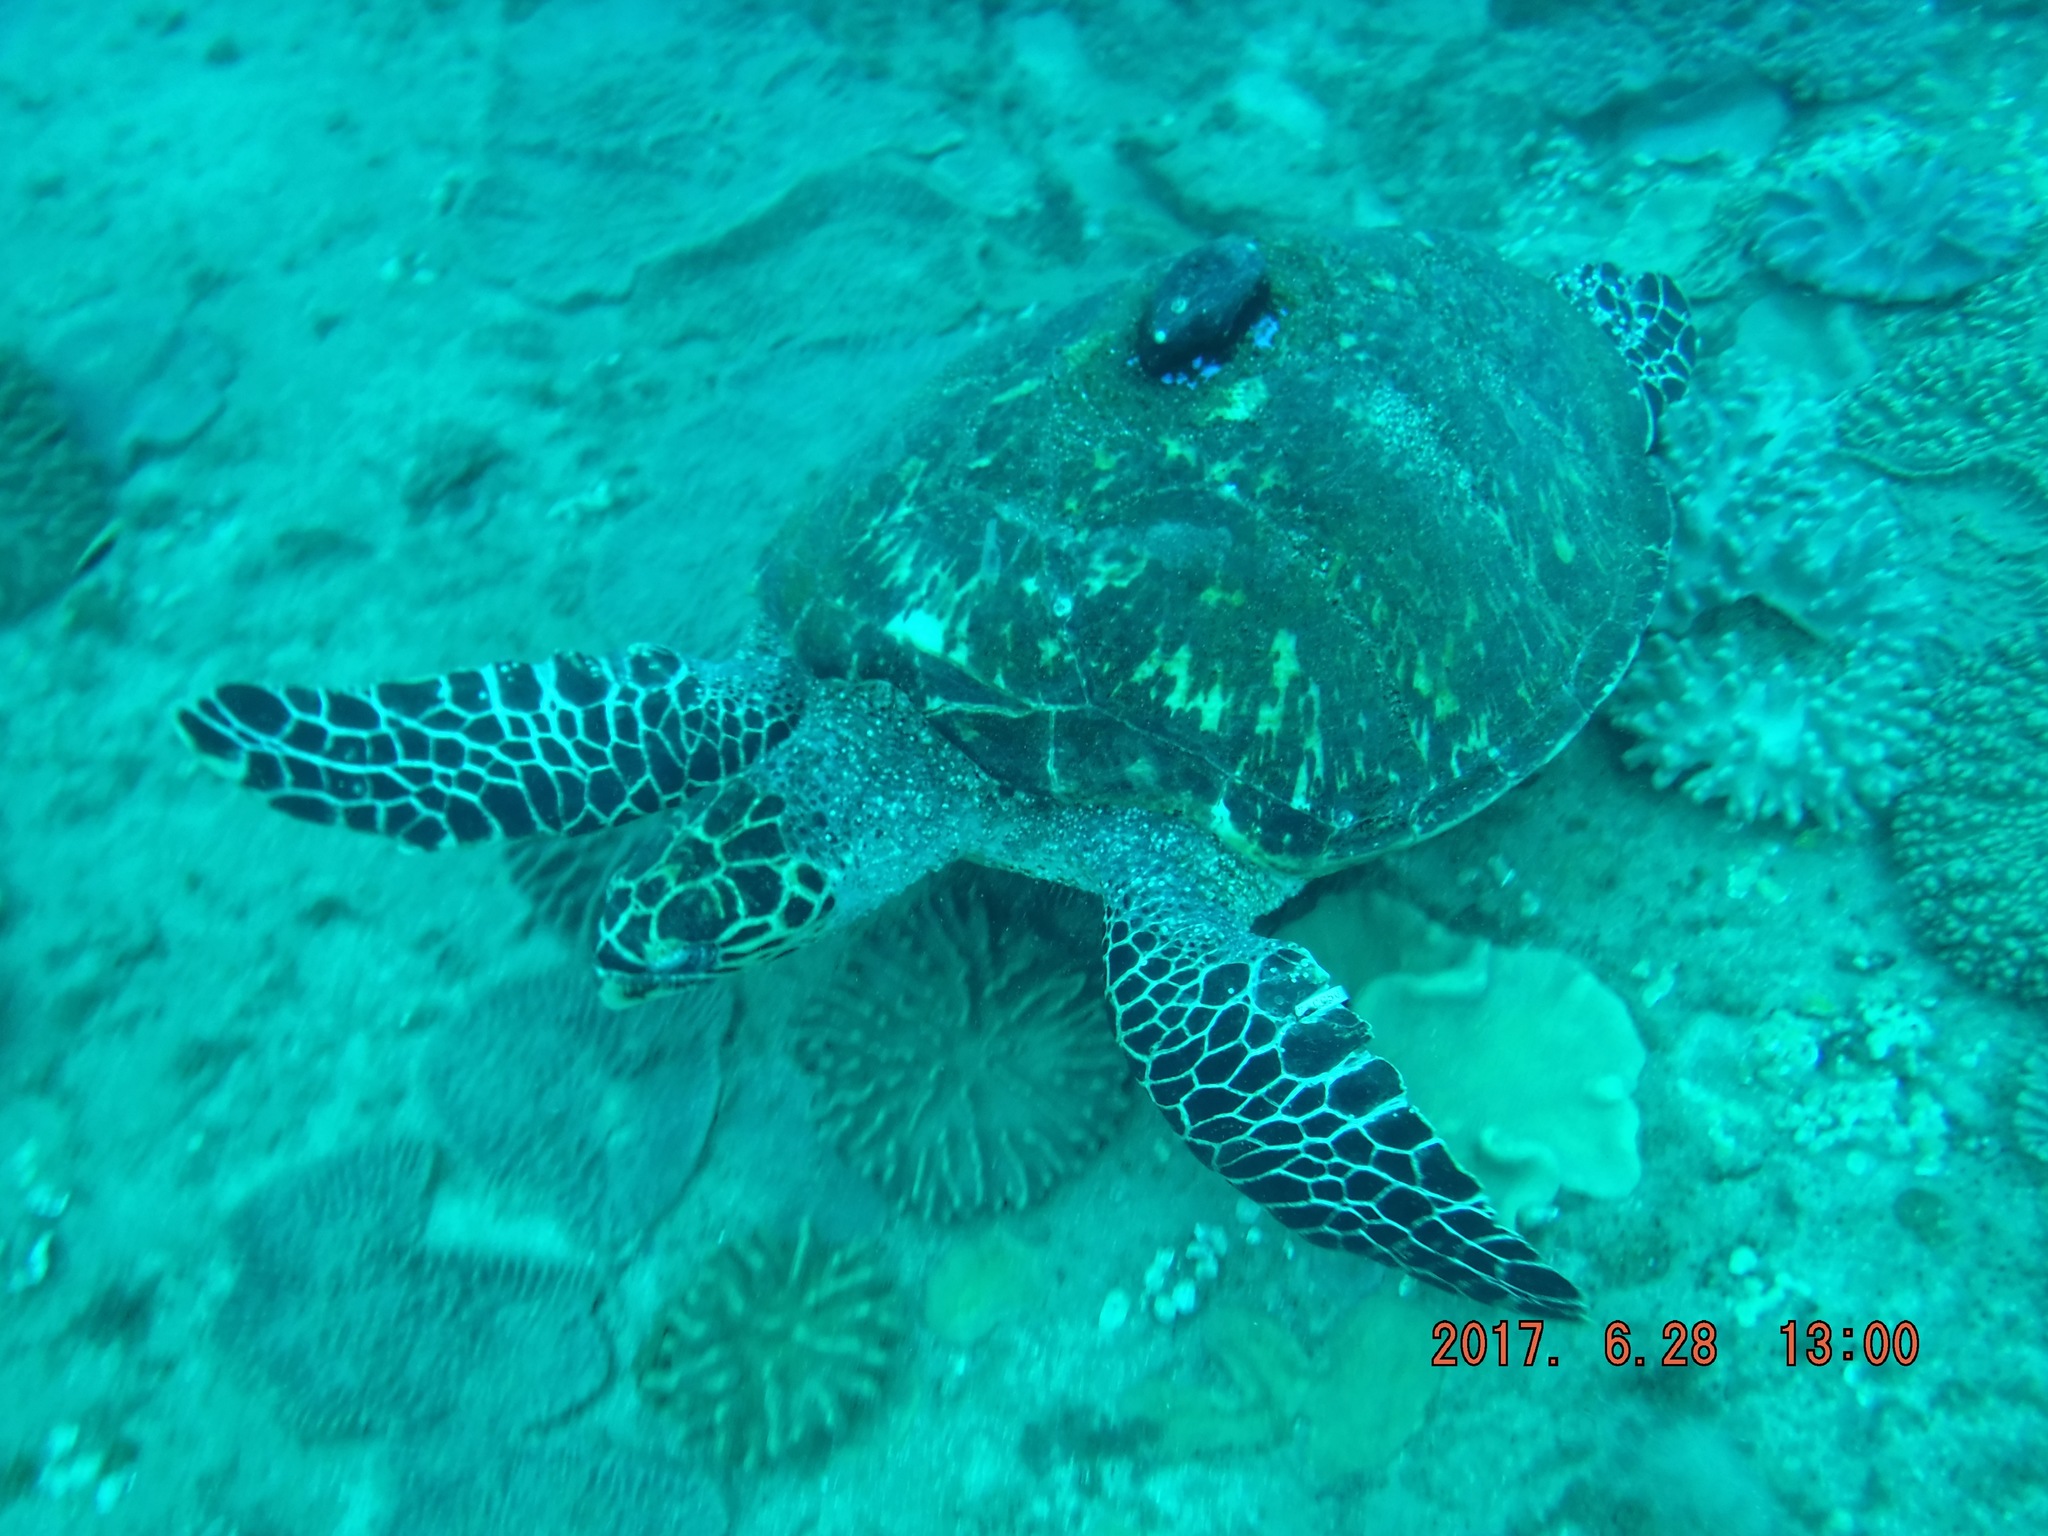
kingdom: Animalia
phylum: Chordata
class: Testudines
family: Cheloniidae
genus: Eretmochelys
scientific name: Eretmochelys imbricata
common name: Hawksbill turtle
